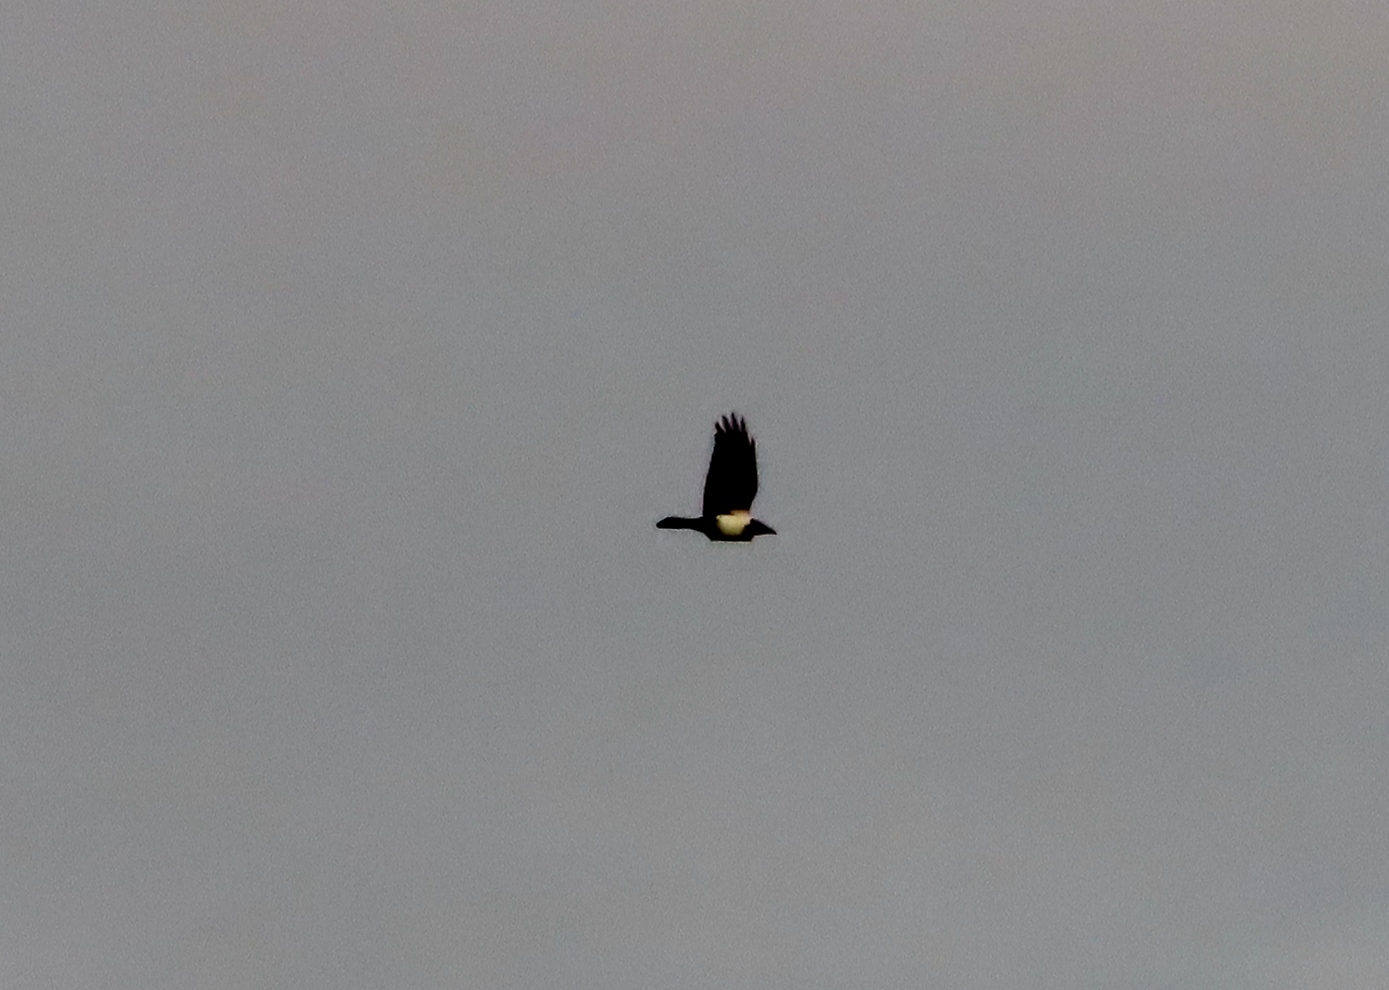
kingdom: Animalia
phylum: Chordata
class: Aves
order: Passeriformes
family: Corvidae
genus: Corvus
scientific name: Corvus albus
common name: Pied crow
